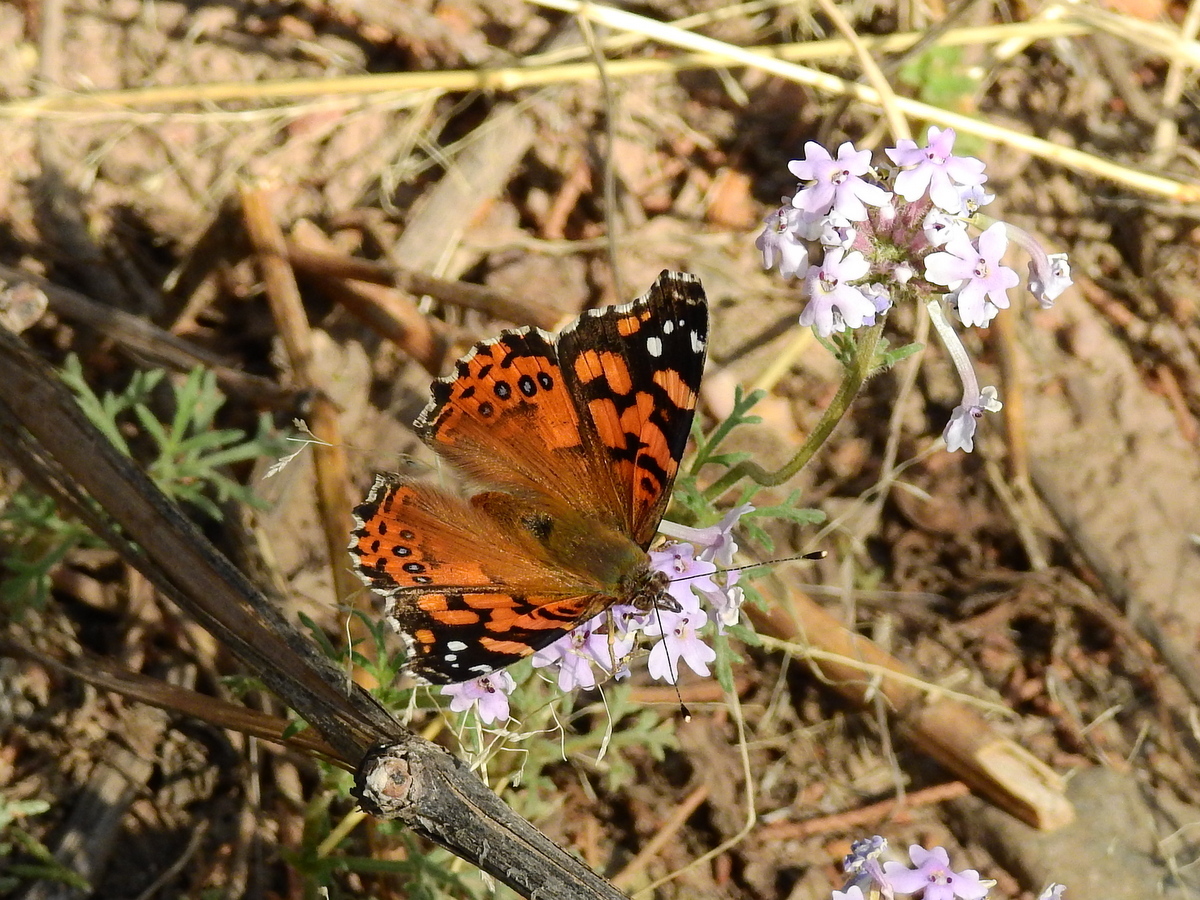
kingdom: Animalia
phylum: Arthropoda
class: Insecta
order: Lepidoptera
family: Nymphalidae
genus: Vanessa
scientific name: Vanessa carye
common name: Subtropical lady
